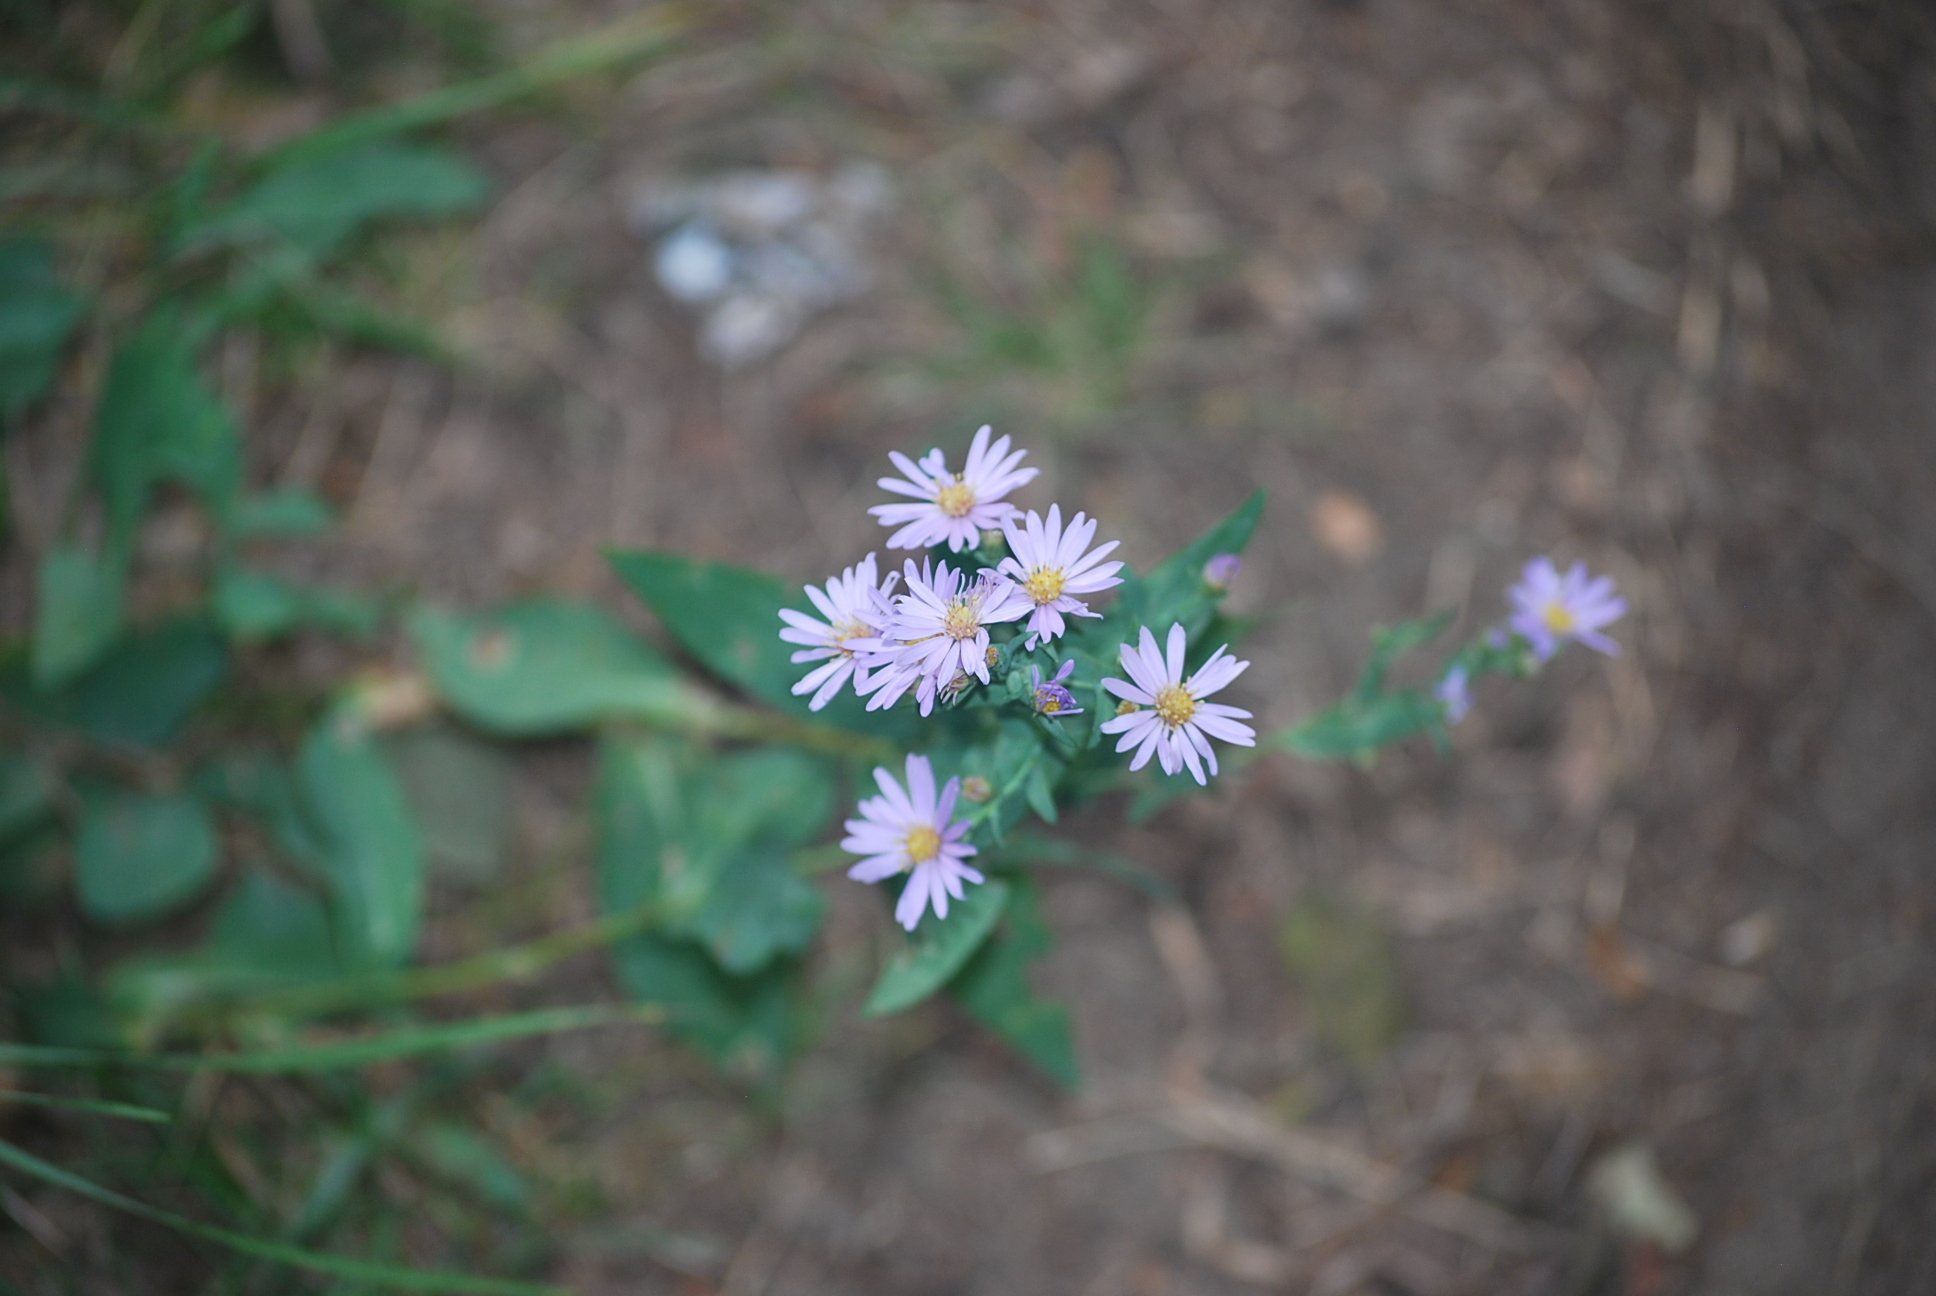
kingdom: Plantae
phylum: Tracheophyta
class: Magnoliopsida
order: Asterales
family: Asteraceae
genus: Symphyotrichum
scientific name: Symphyotrichum laeve
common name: Glaucous aster
